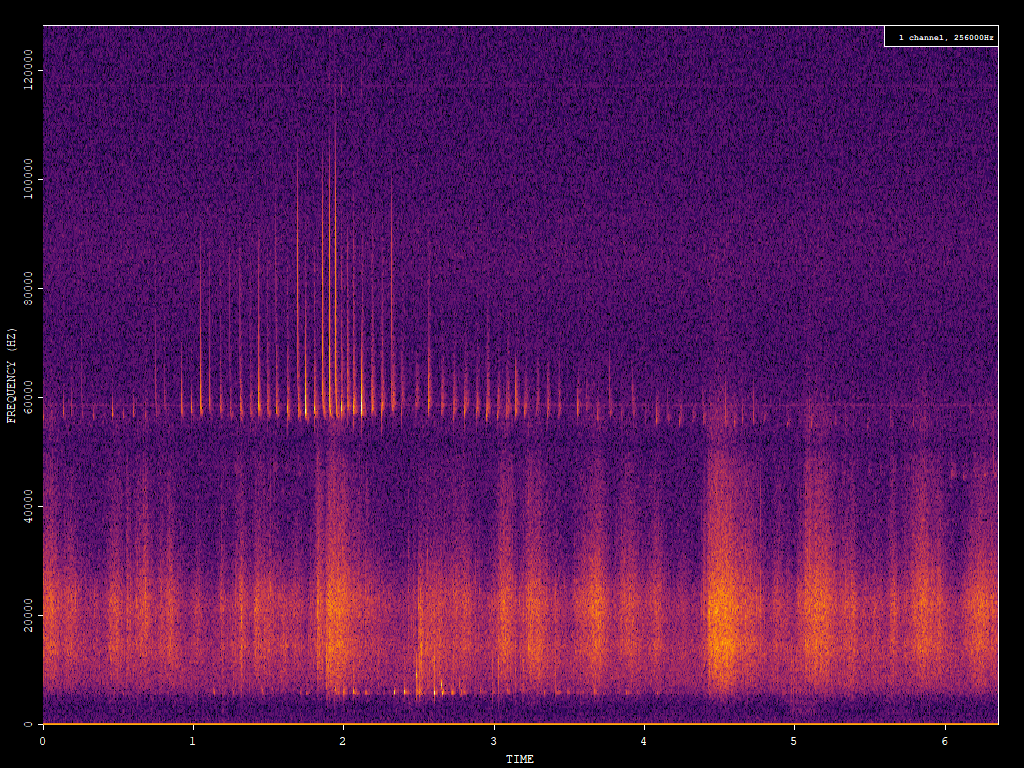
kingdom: Animalia
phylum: Chordata
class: Mammalia
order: Chiroptera
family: Vespertilionidae
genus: Pipistrellus
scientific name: Pipistrellus pygmaeus
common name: Soprano pipistrelle
